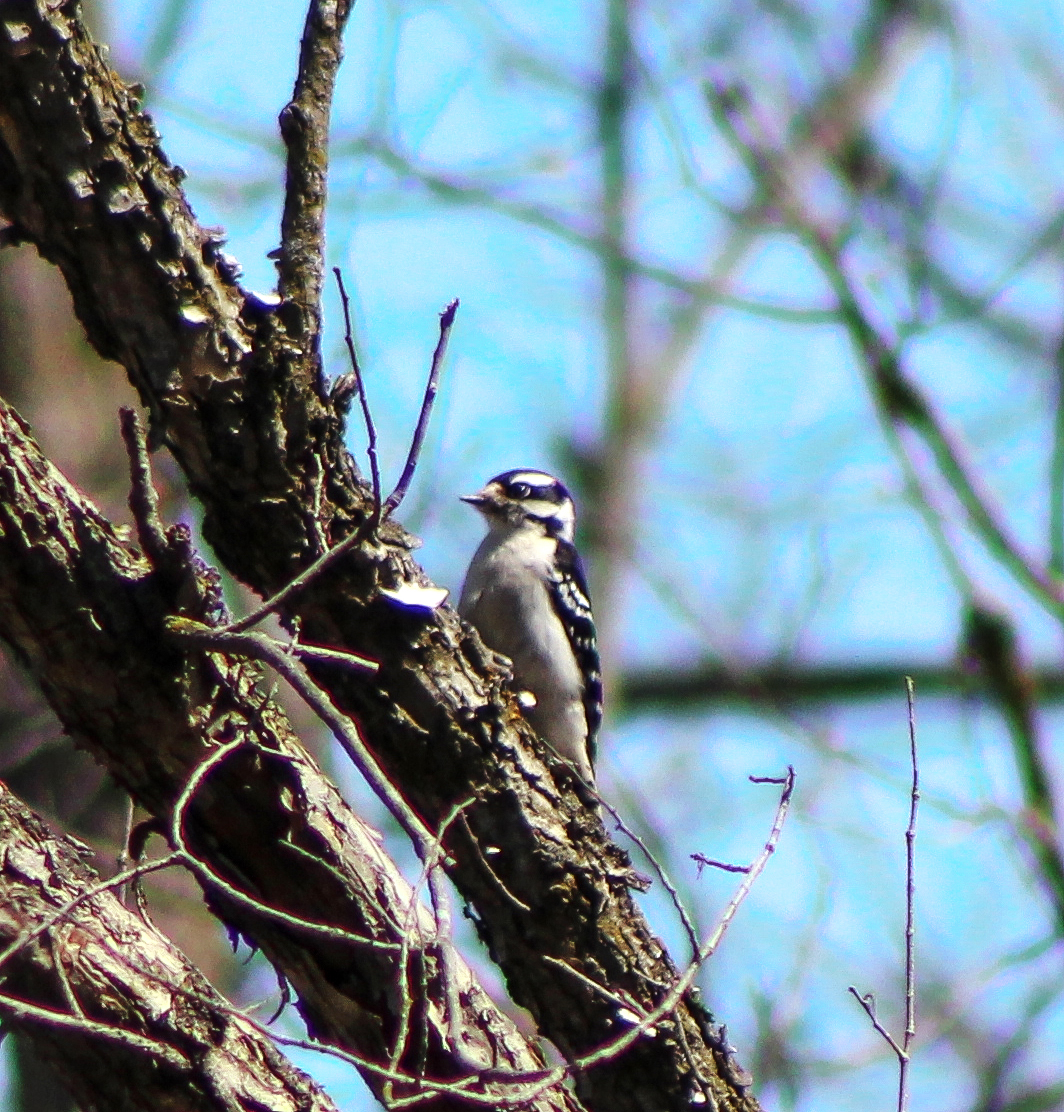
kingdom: Animalia
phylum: Chordata
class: Aves
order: Piciformes
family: Picidae
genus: Dryobates
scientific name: Dryobates pubescens
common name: Downy woodpecker
